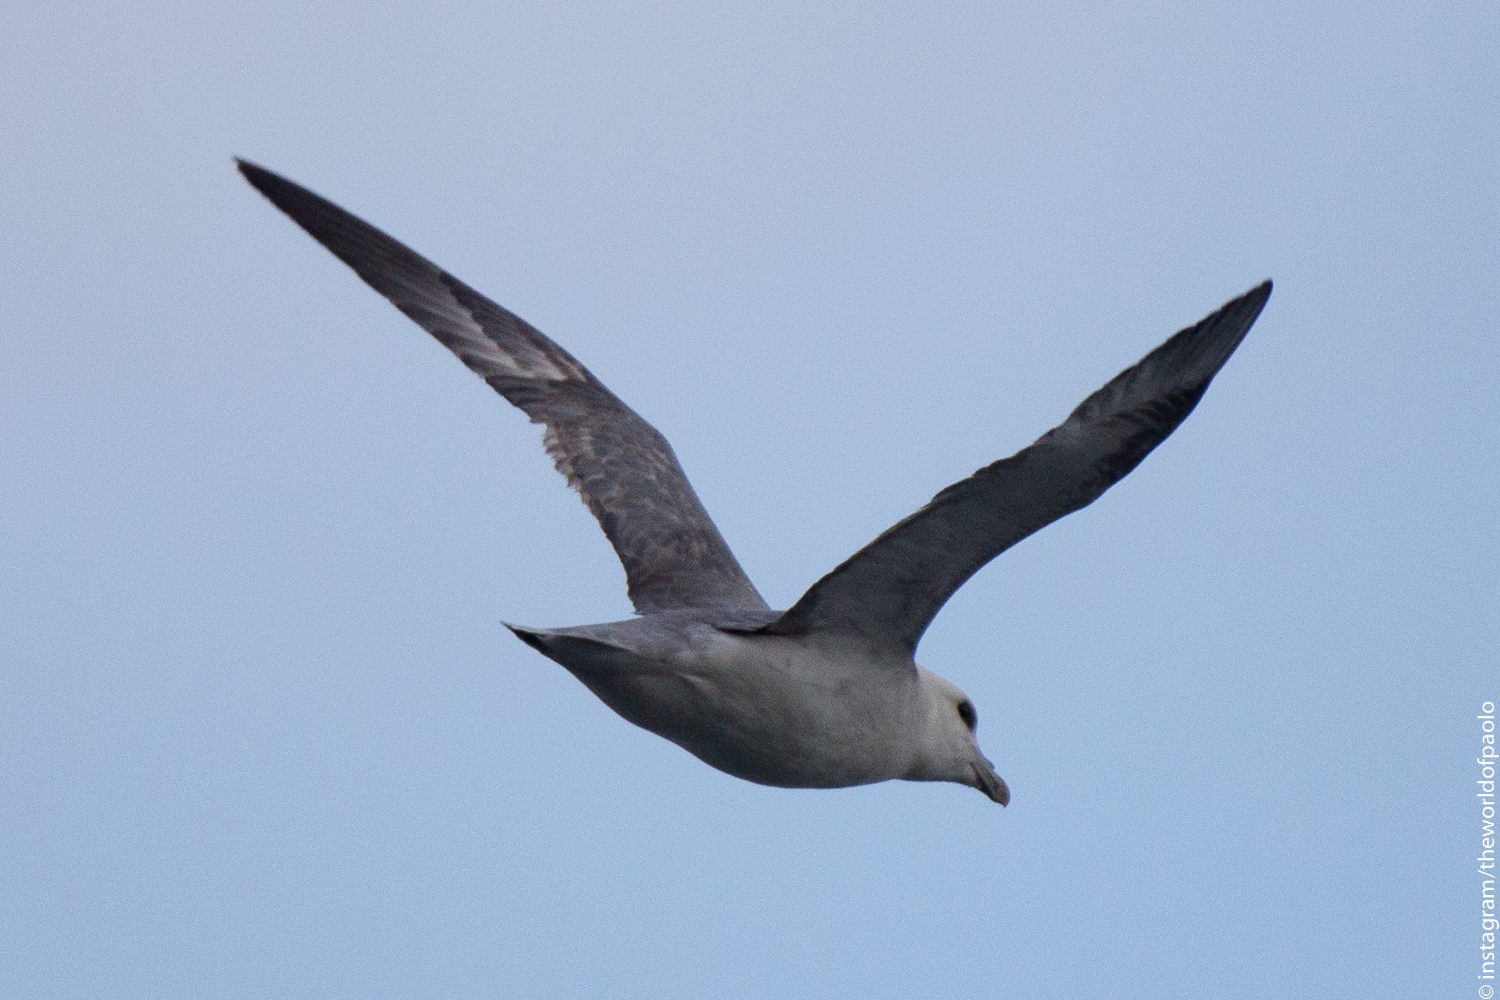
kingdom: Animalia
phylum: Chordata
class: Aves
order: Procellariiformes
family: Procellariidae
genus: Fulmarus
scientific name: Fulmarus glacialis
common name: Northern fulmar
